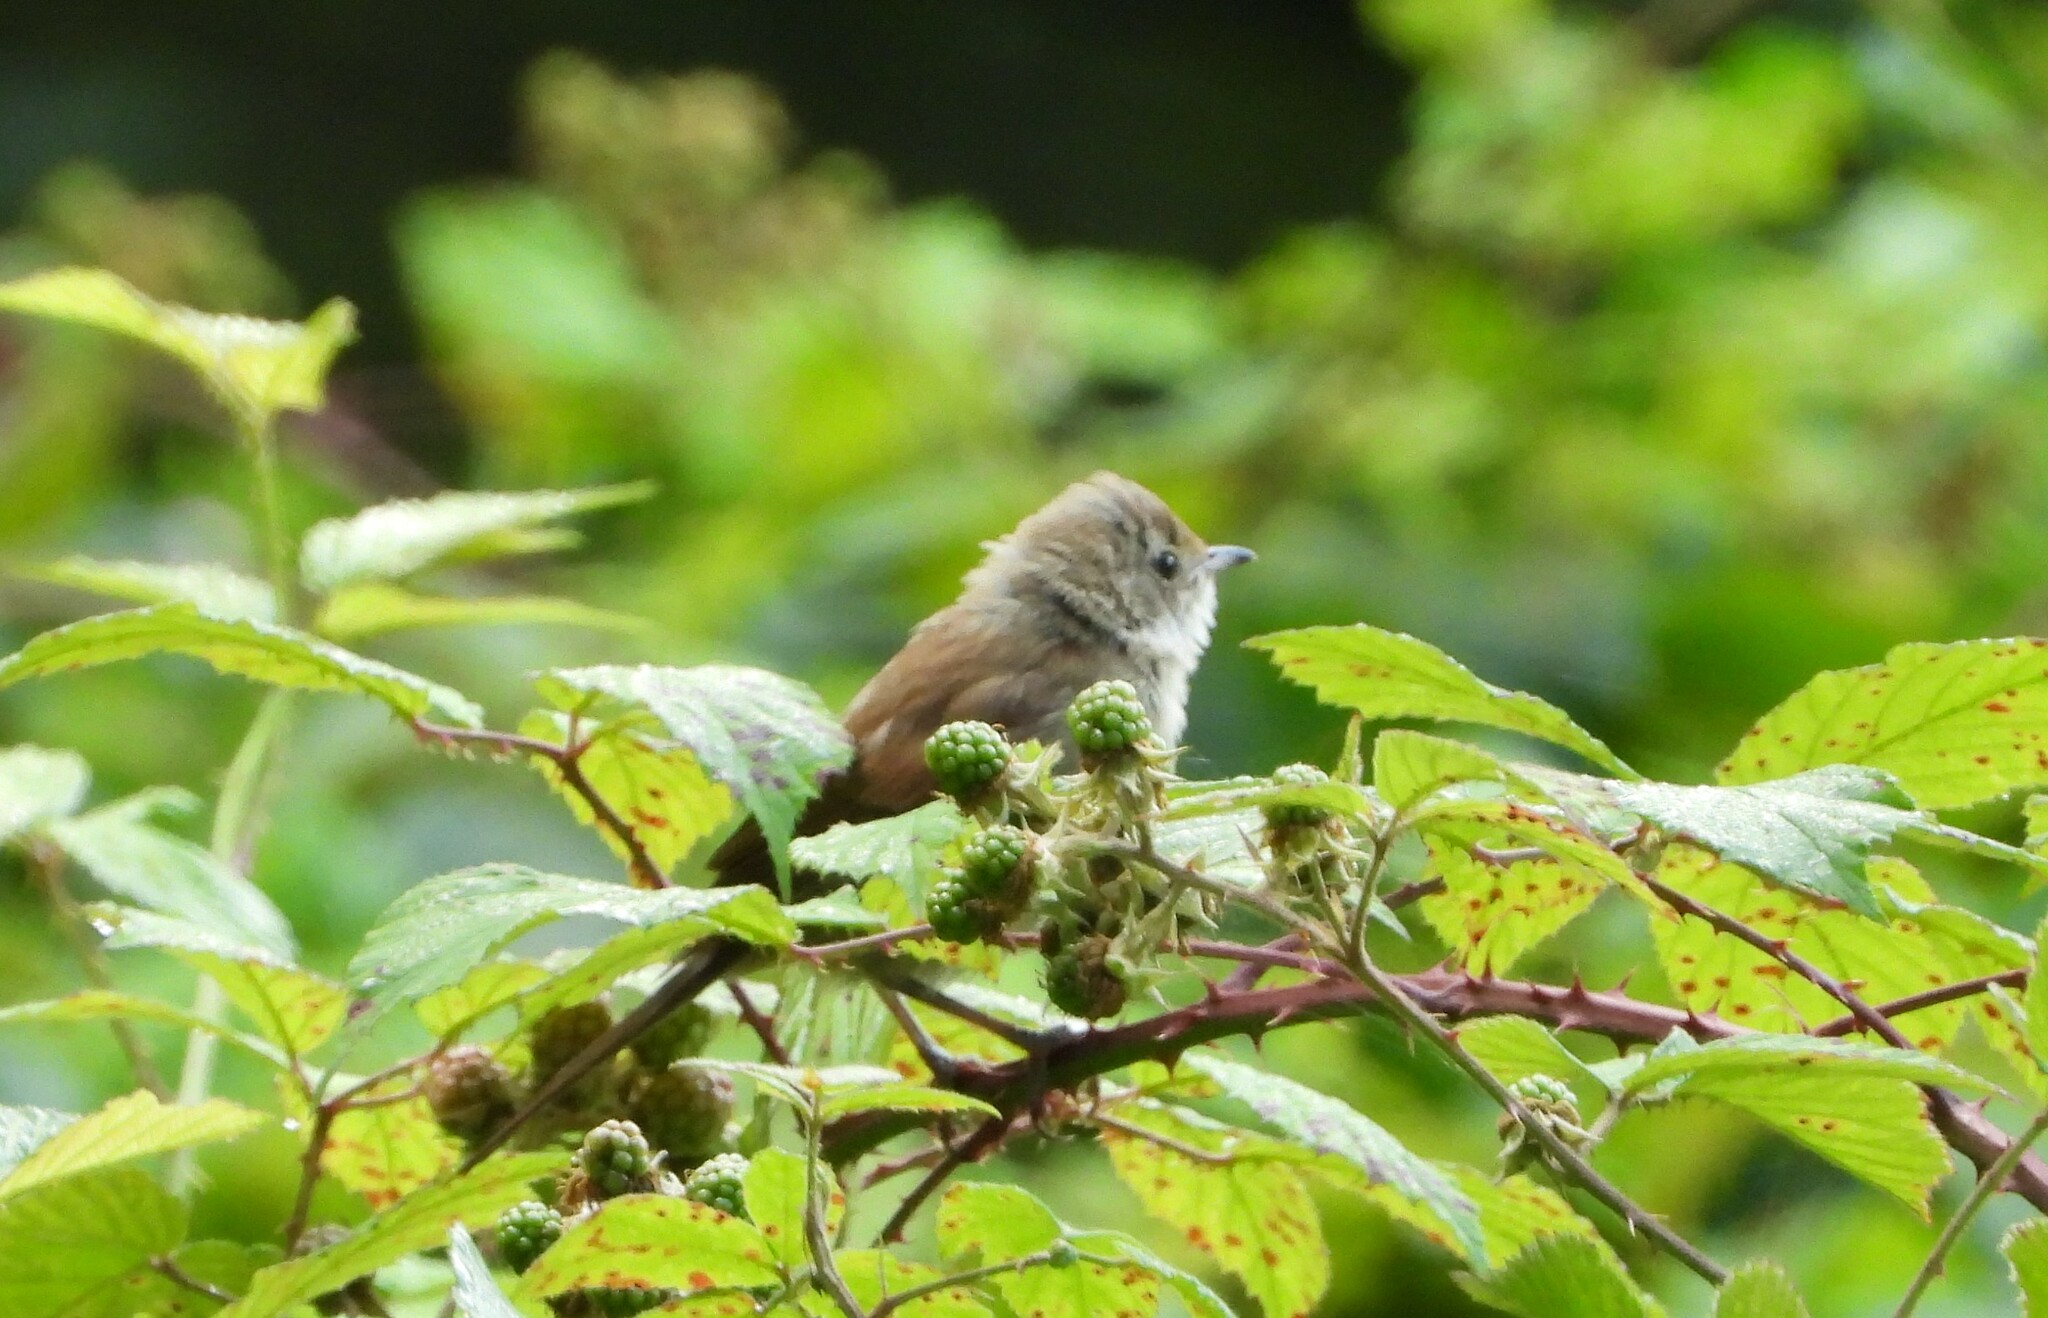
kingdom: Animalia
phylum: Chordata
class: Aves
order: Passeriformes
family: Sylviidae
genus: Sylvia
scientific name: Sylvia communis
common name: Common whitethroat
